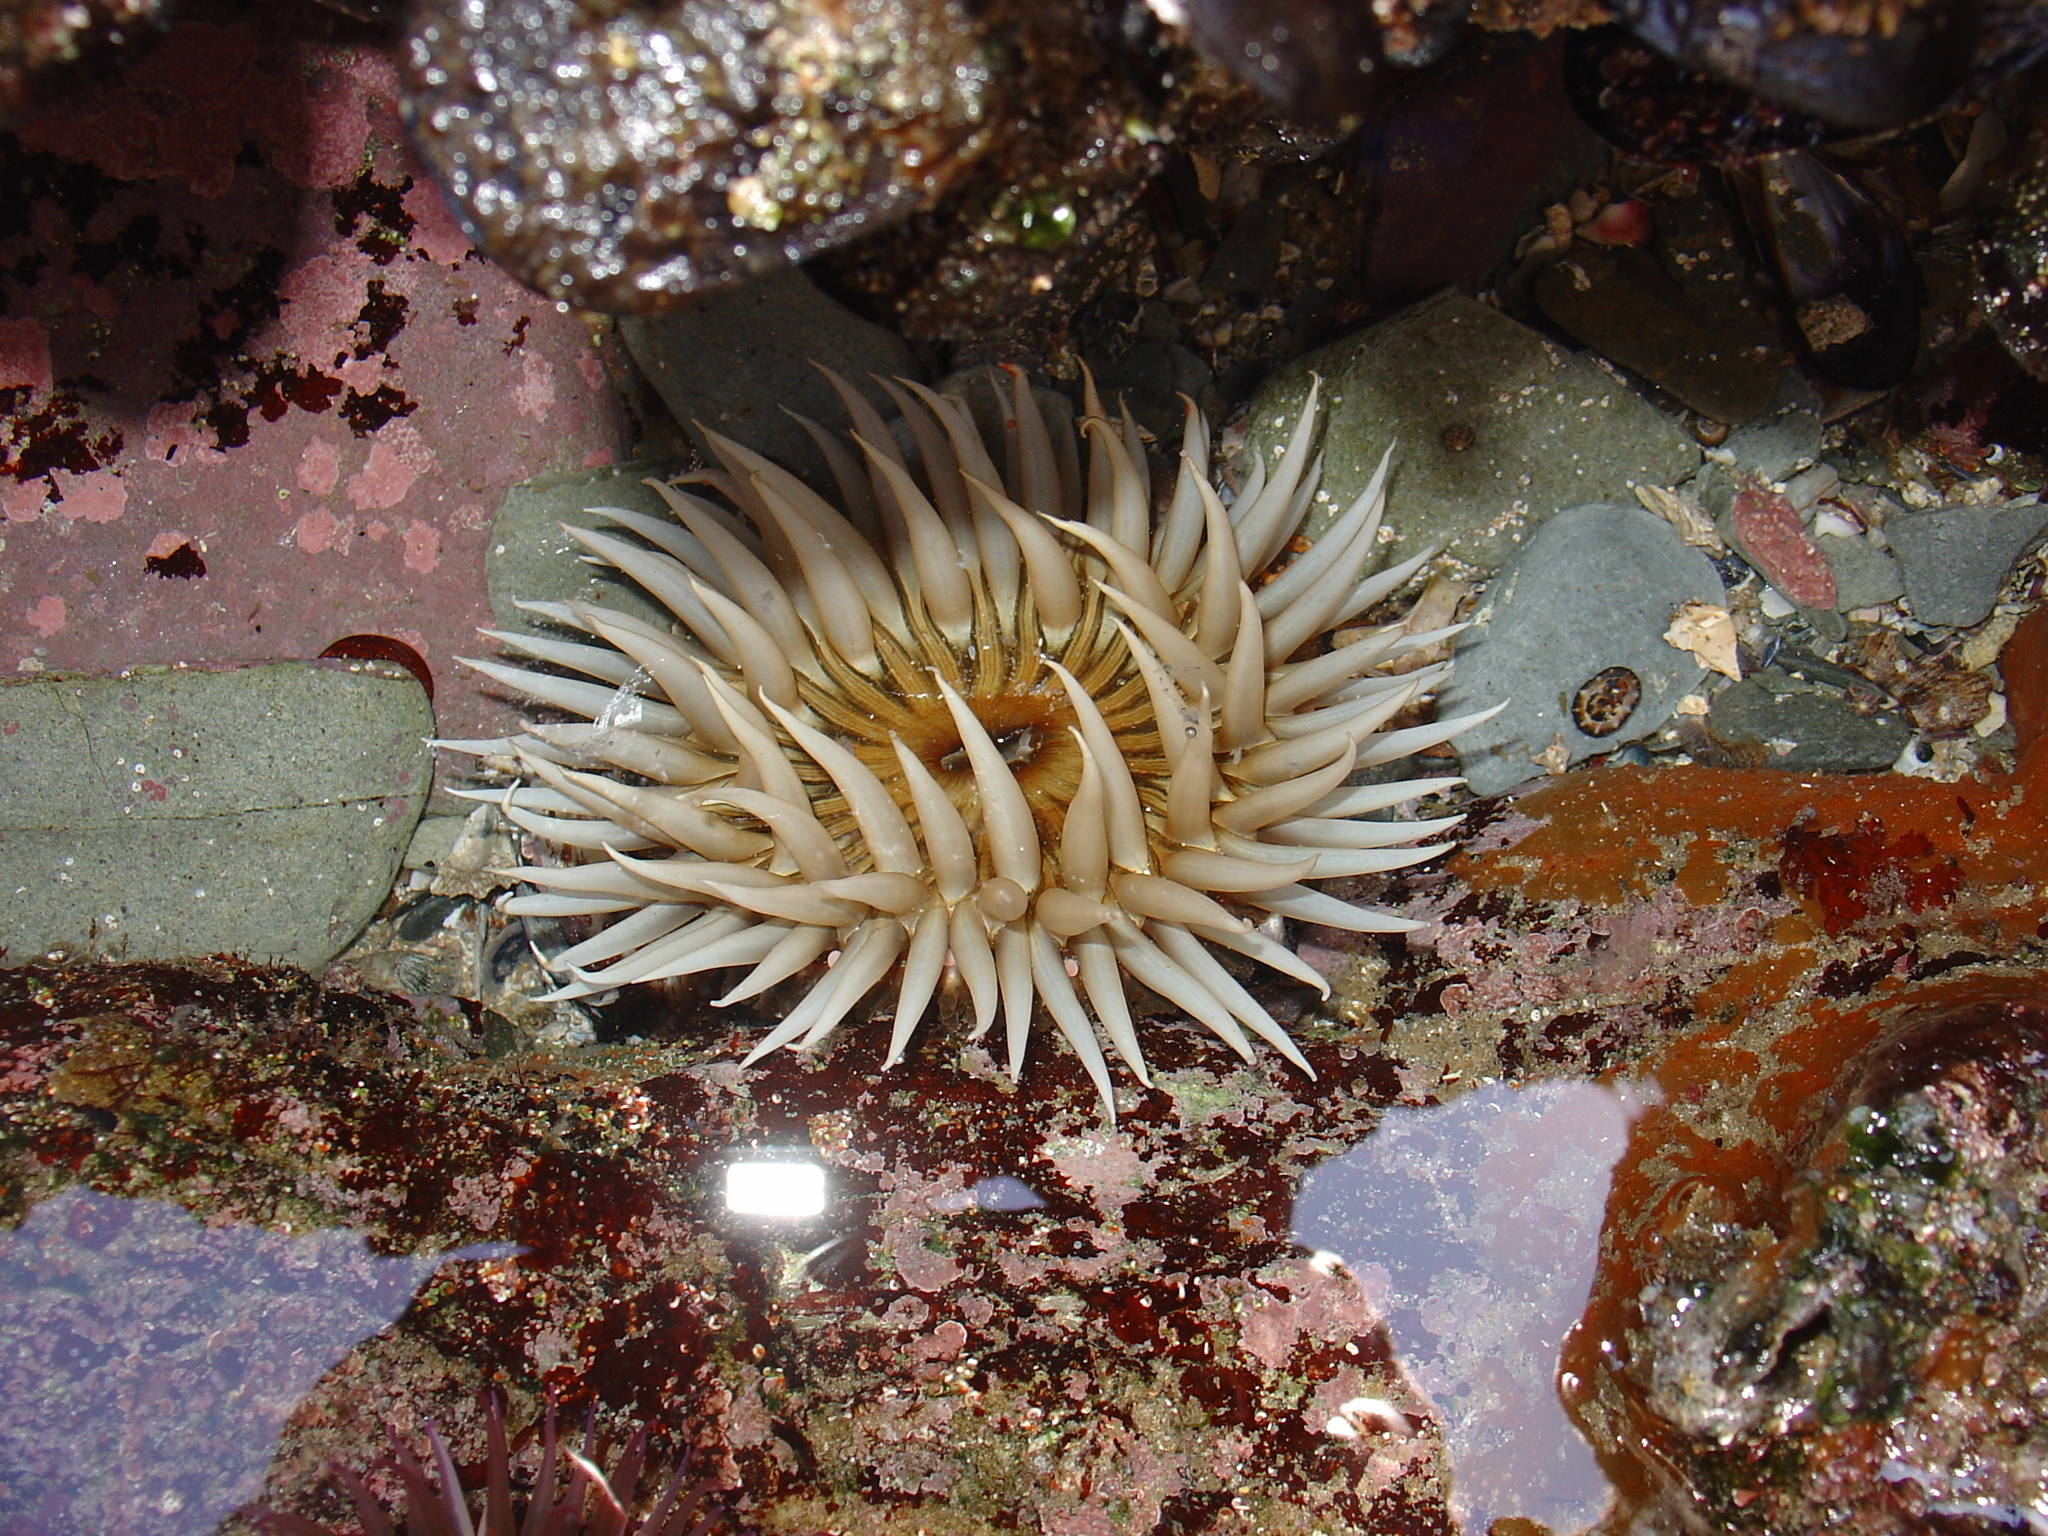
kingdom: Animalia
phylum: Cnidaria
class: Anthozoa
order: Actiniaria
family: Actiniidae
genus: Anthopleura
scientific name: Anthopleura michaelseni
